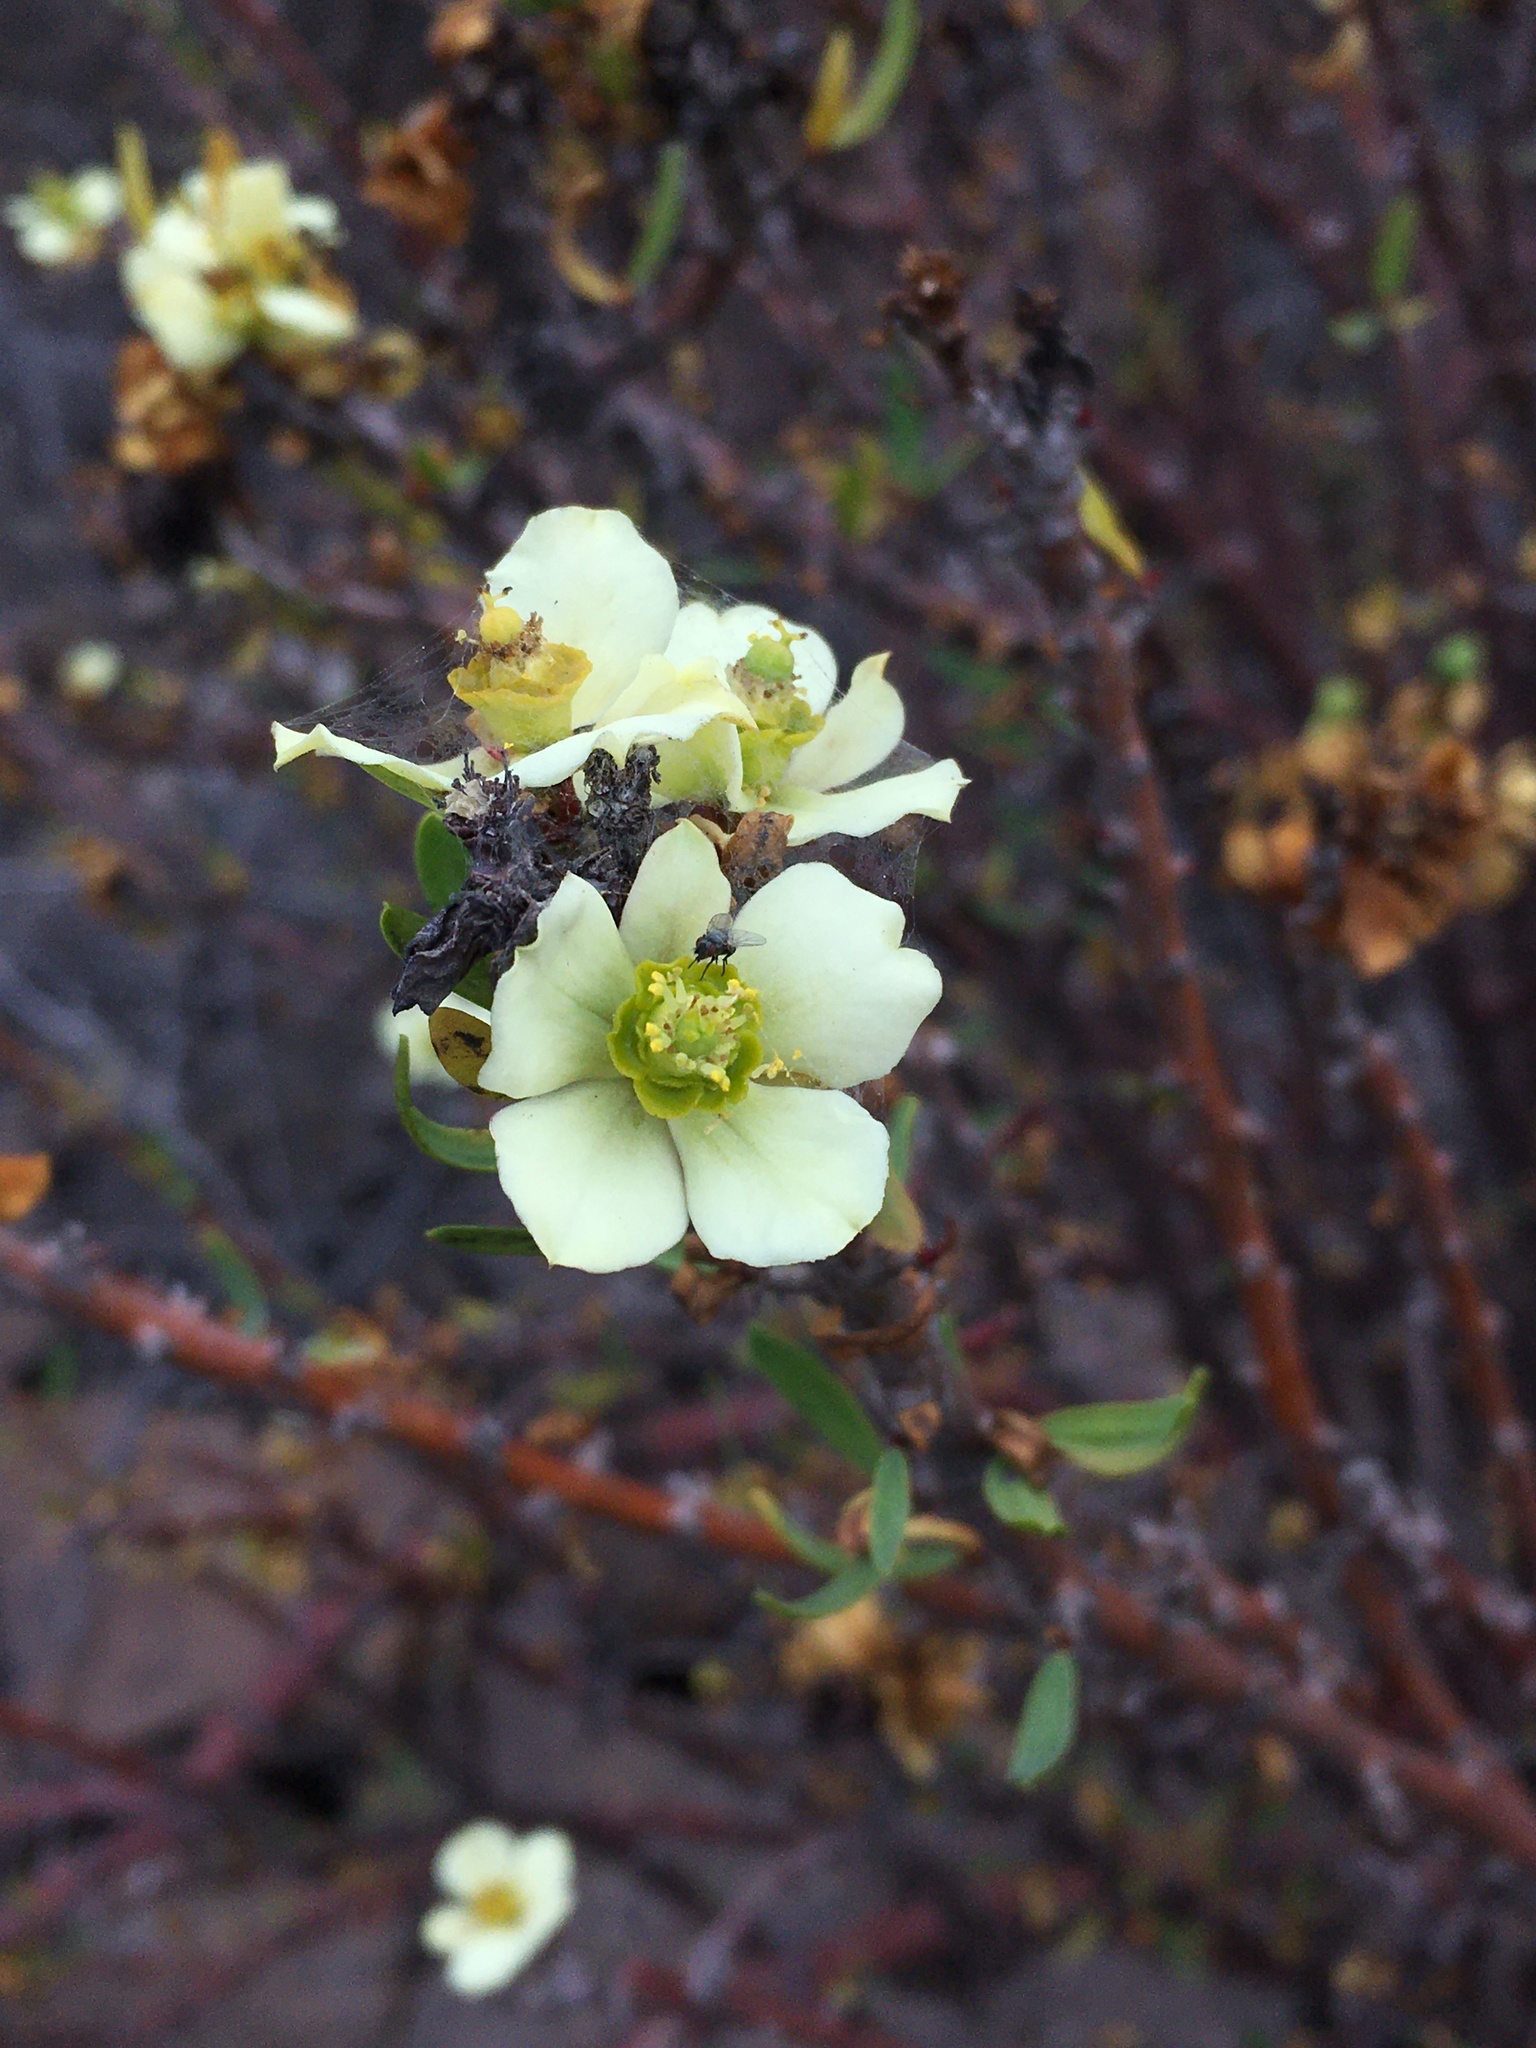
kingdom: Plantae
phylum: Tracheophyta
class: Magnoliopsida
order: Malpighiales
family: Euphorbiaceae
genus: Euphorbia
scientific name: Euphorbia lactiflua
